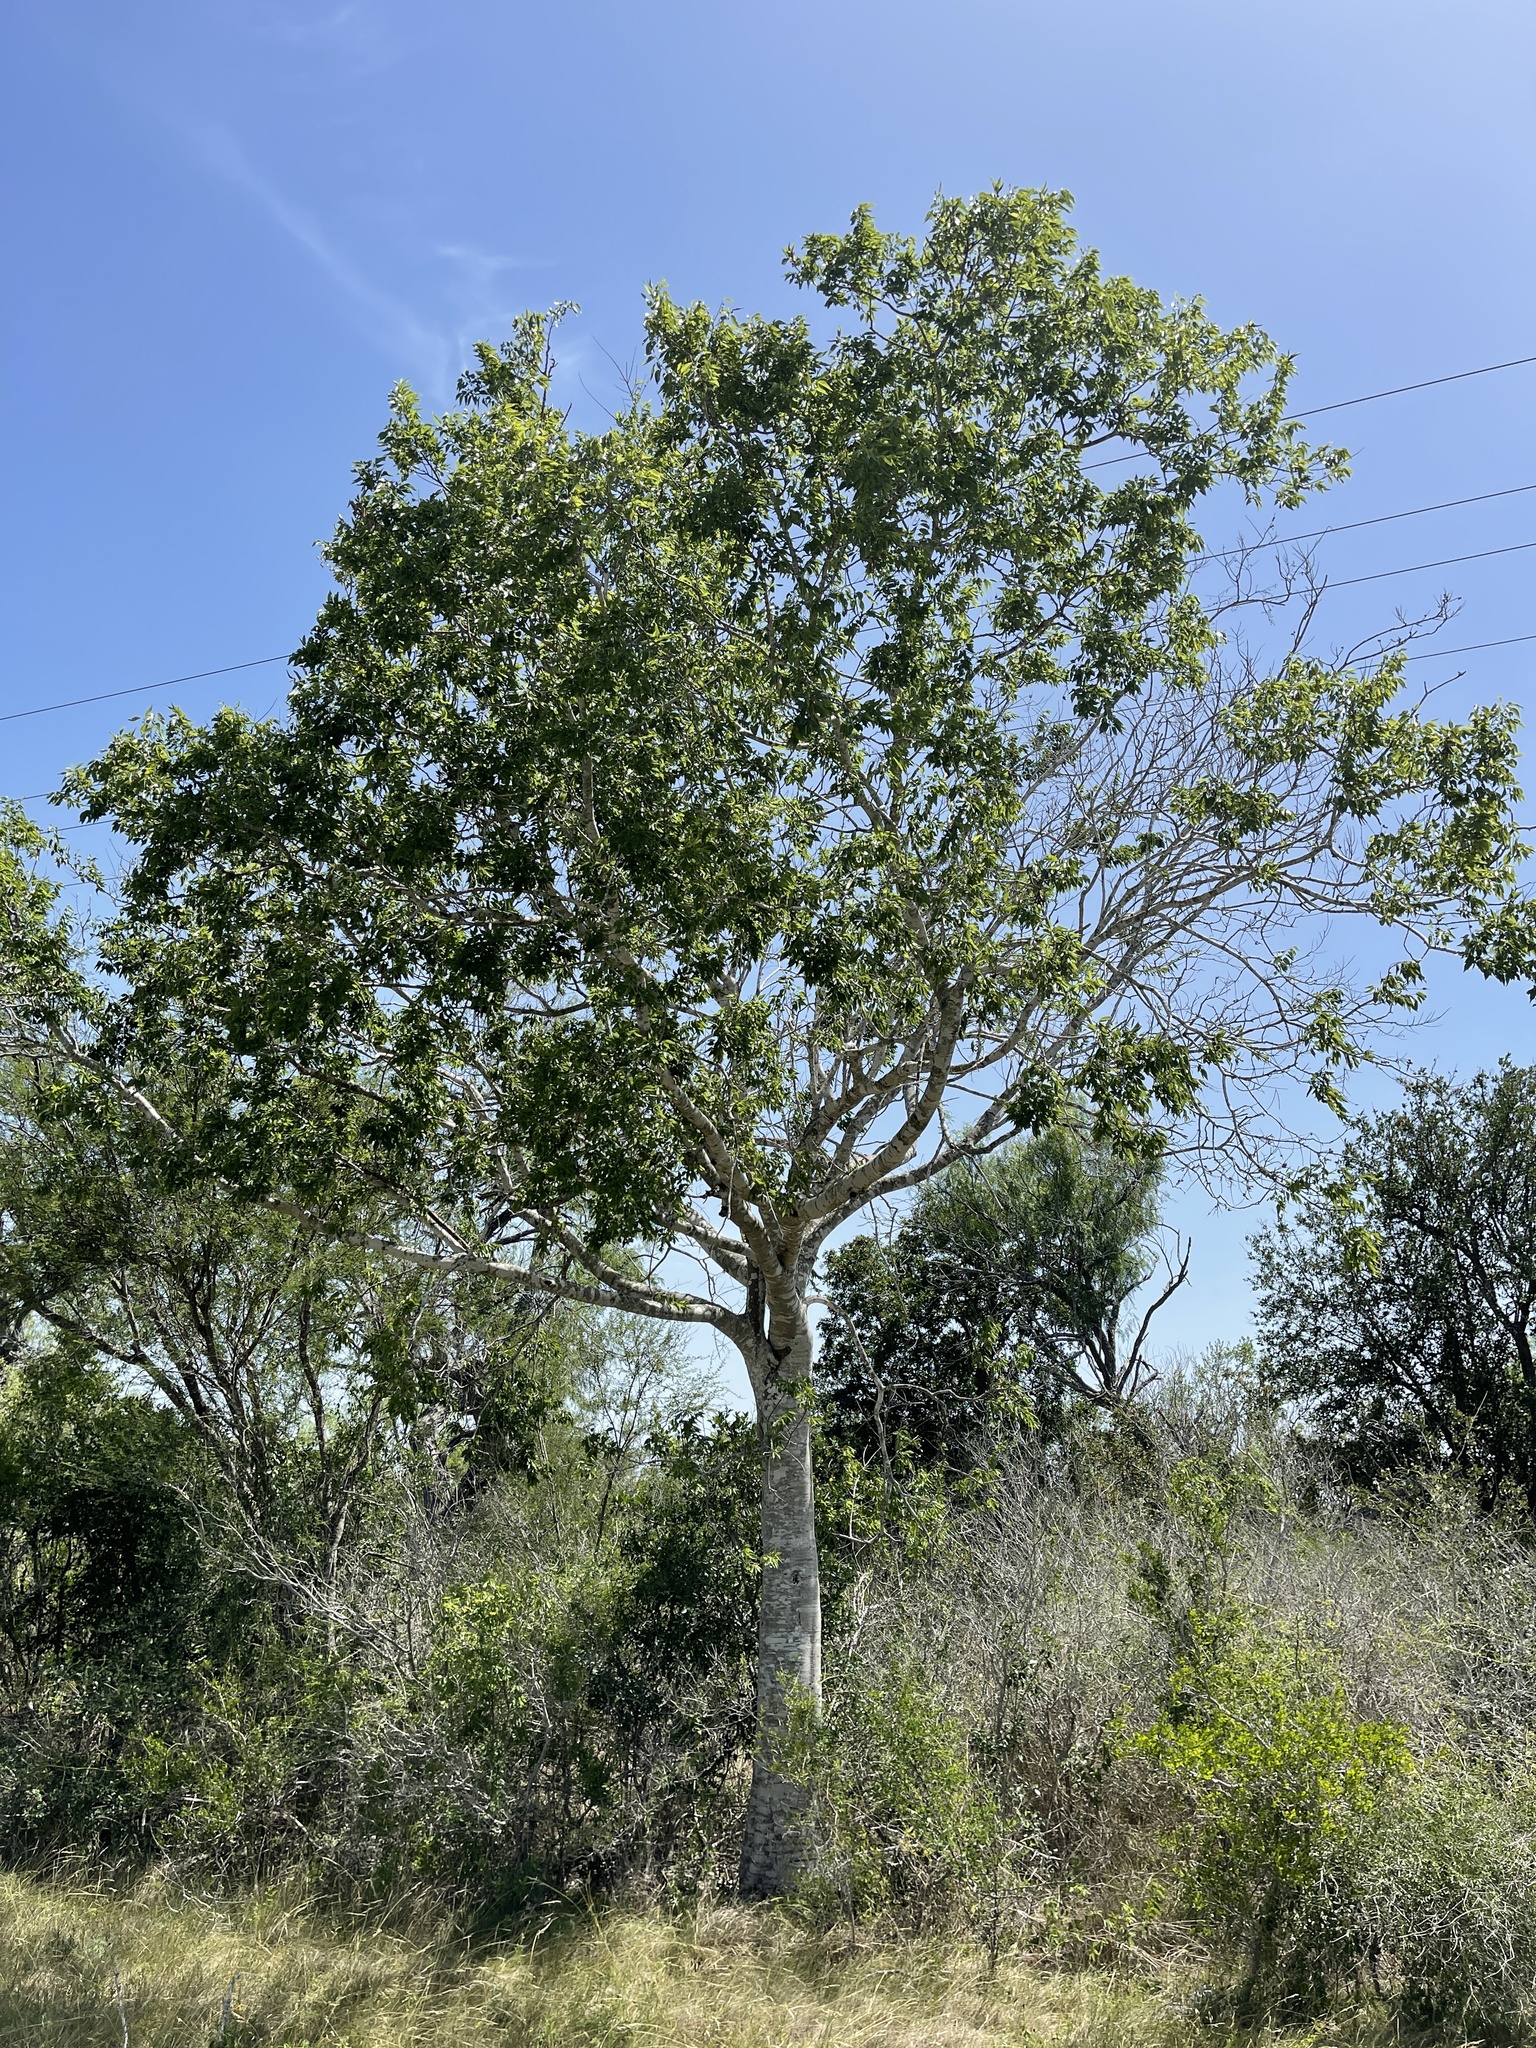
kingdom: Plantae
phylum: Tracheophyta
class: Magnoliopsida
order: Rosales
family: Cannabaceae
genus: Celtis
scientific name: Celtis laevigata
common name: Sugarberry
